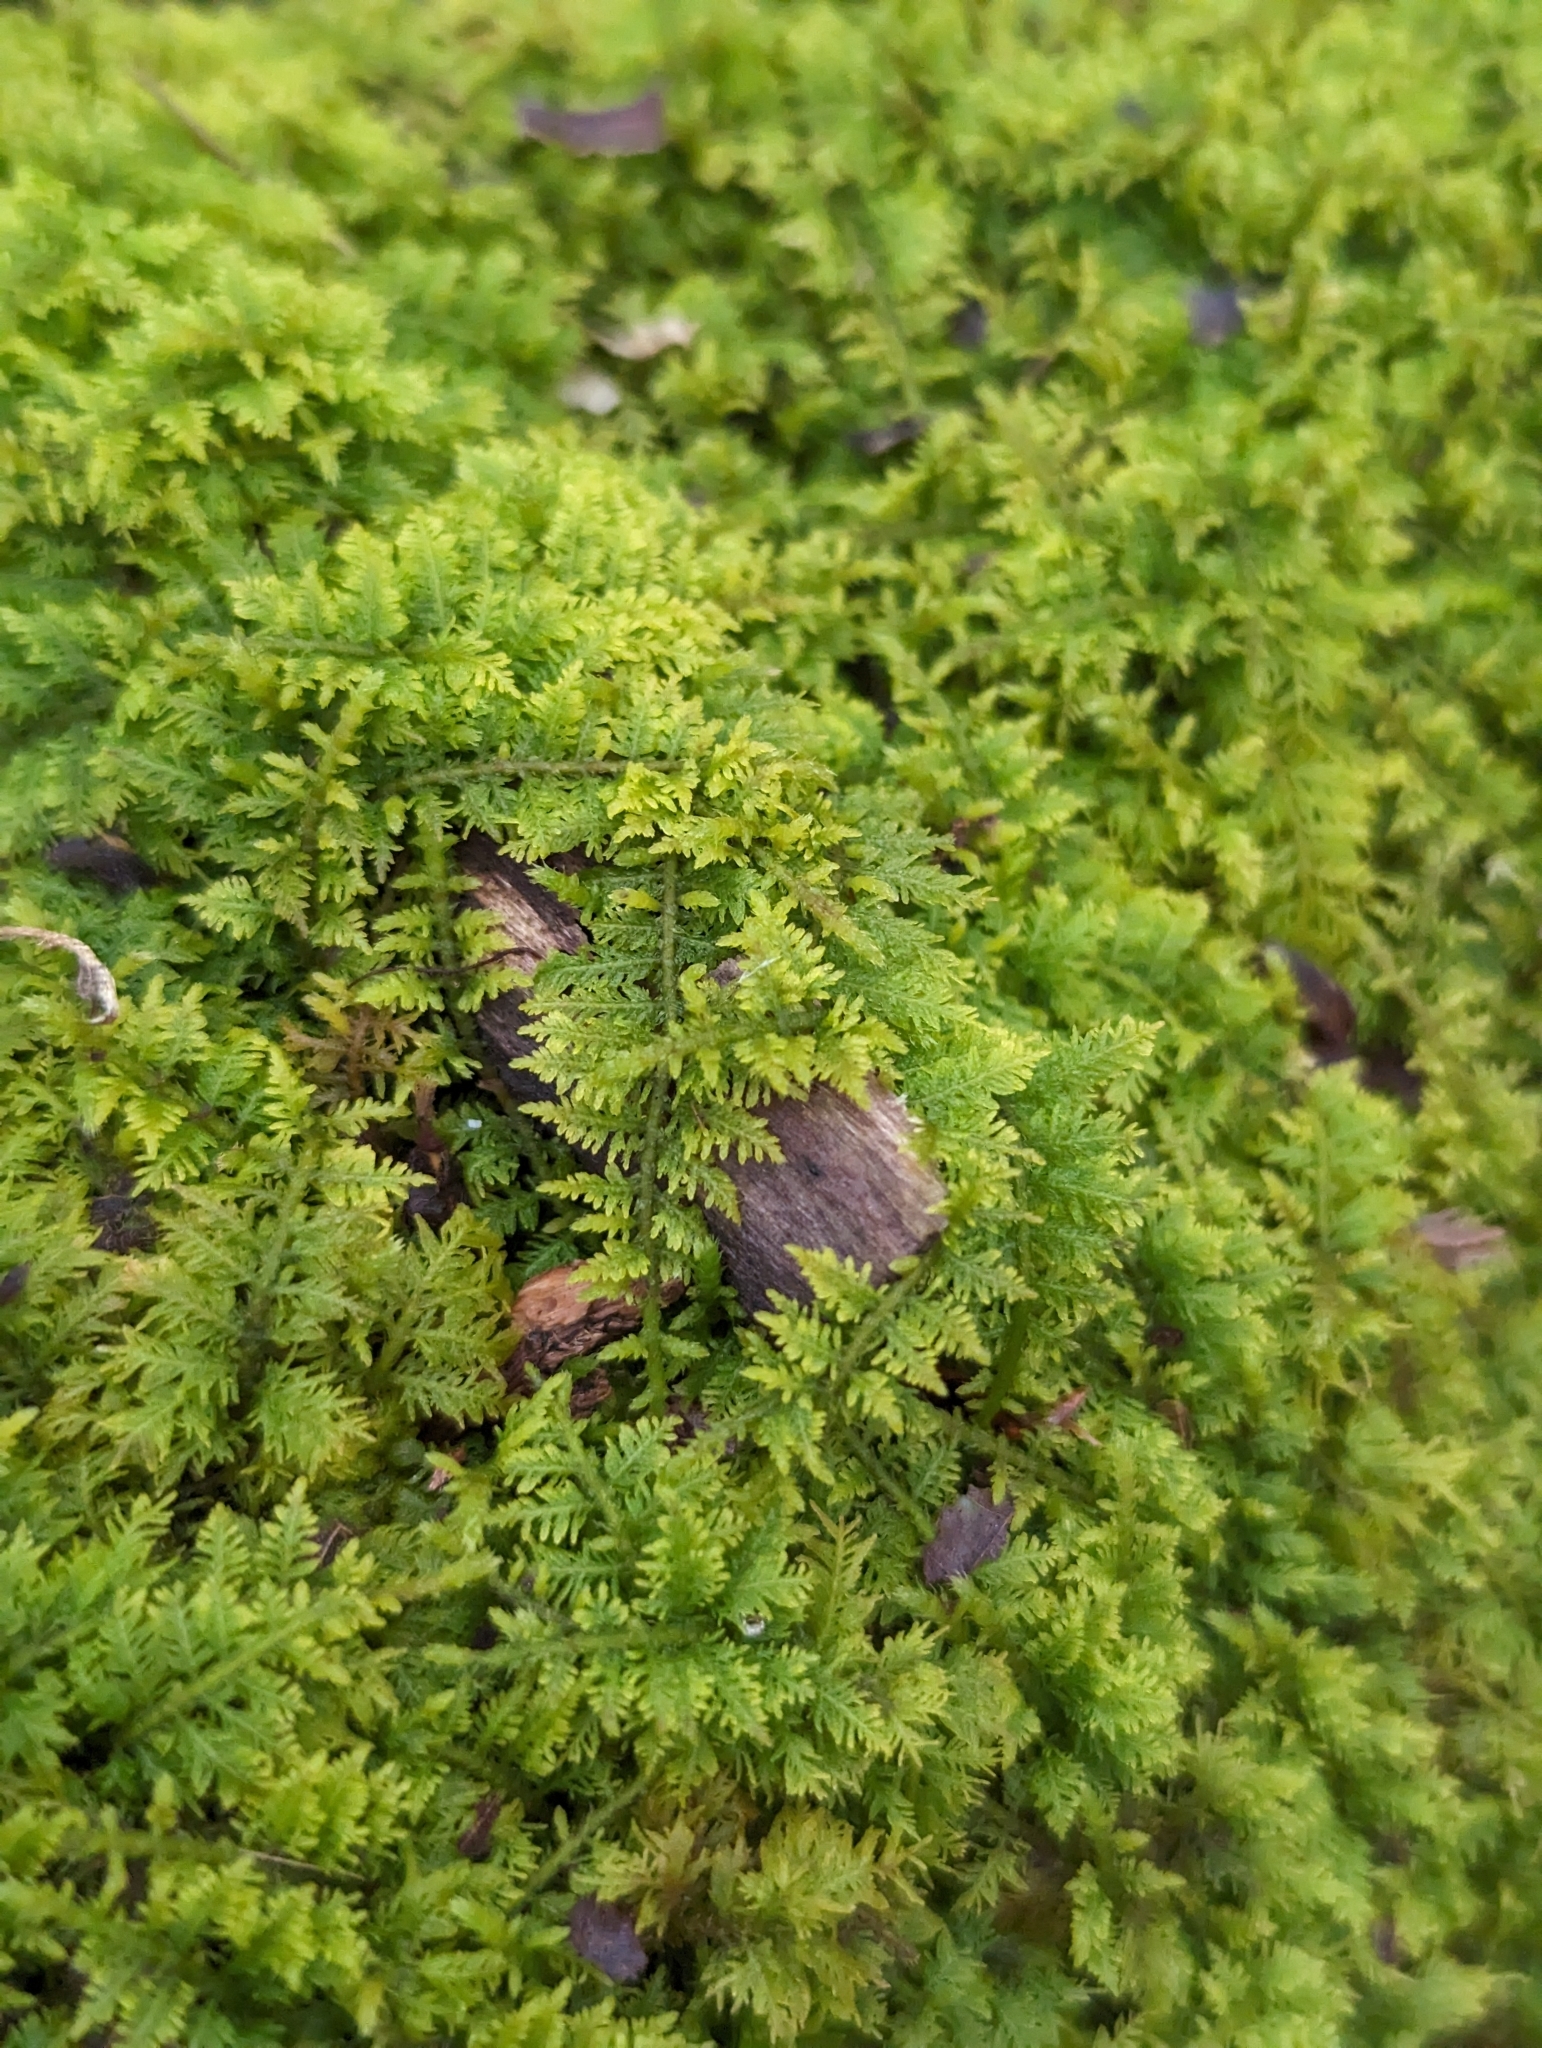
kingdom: Plantae
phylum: Bryophyta
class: Bryopsida
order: Hypnales
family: Thuidiaceae
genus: Thuidium
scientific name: Thuidium delicatulum
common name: Delicate fern moss
